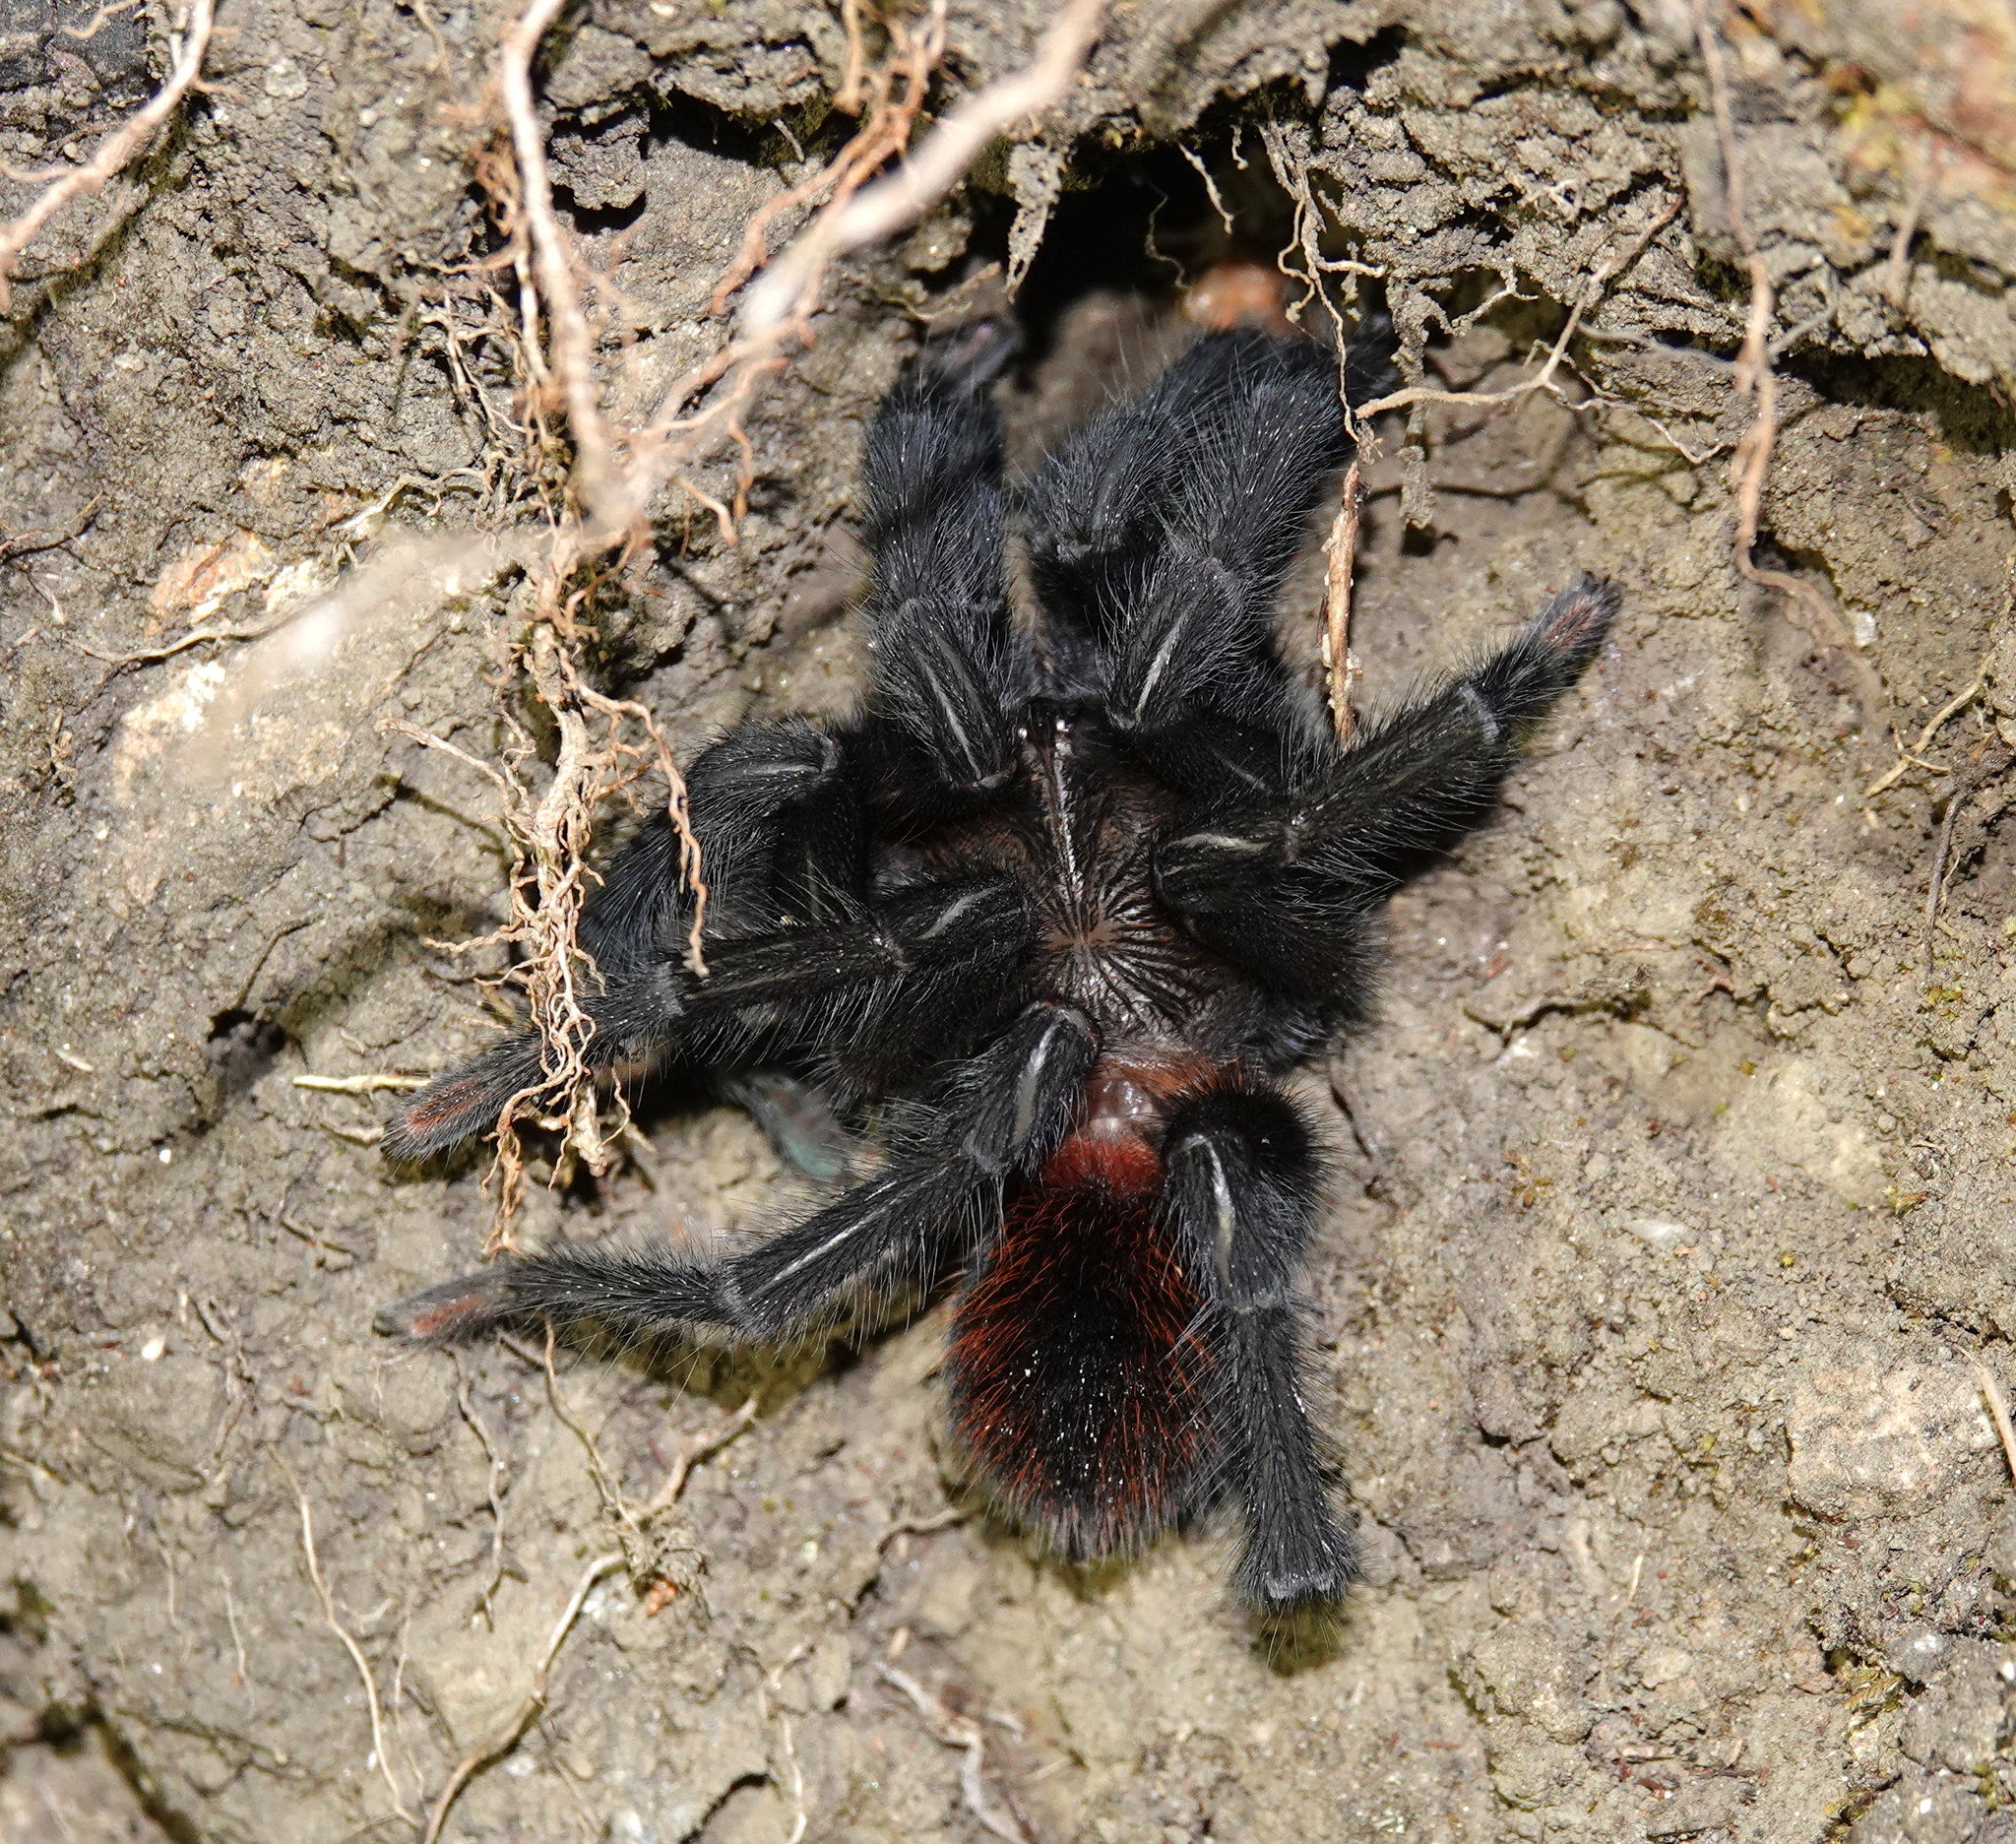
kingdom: Animalia
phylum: Arthropoda
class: Arachnida
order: Araneae
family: Theraphosidae
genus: Kankuamo
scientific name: Kankuamo marquezi
